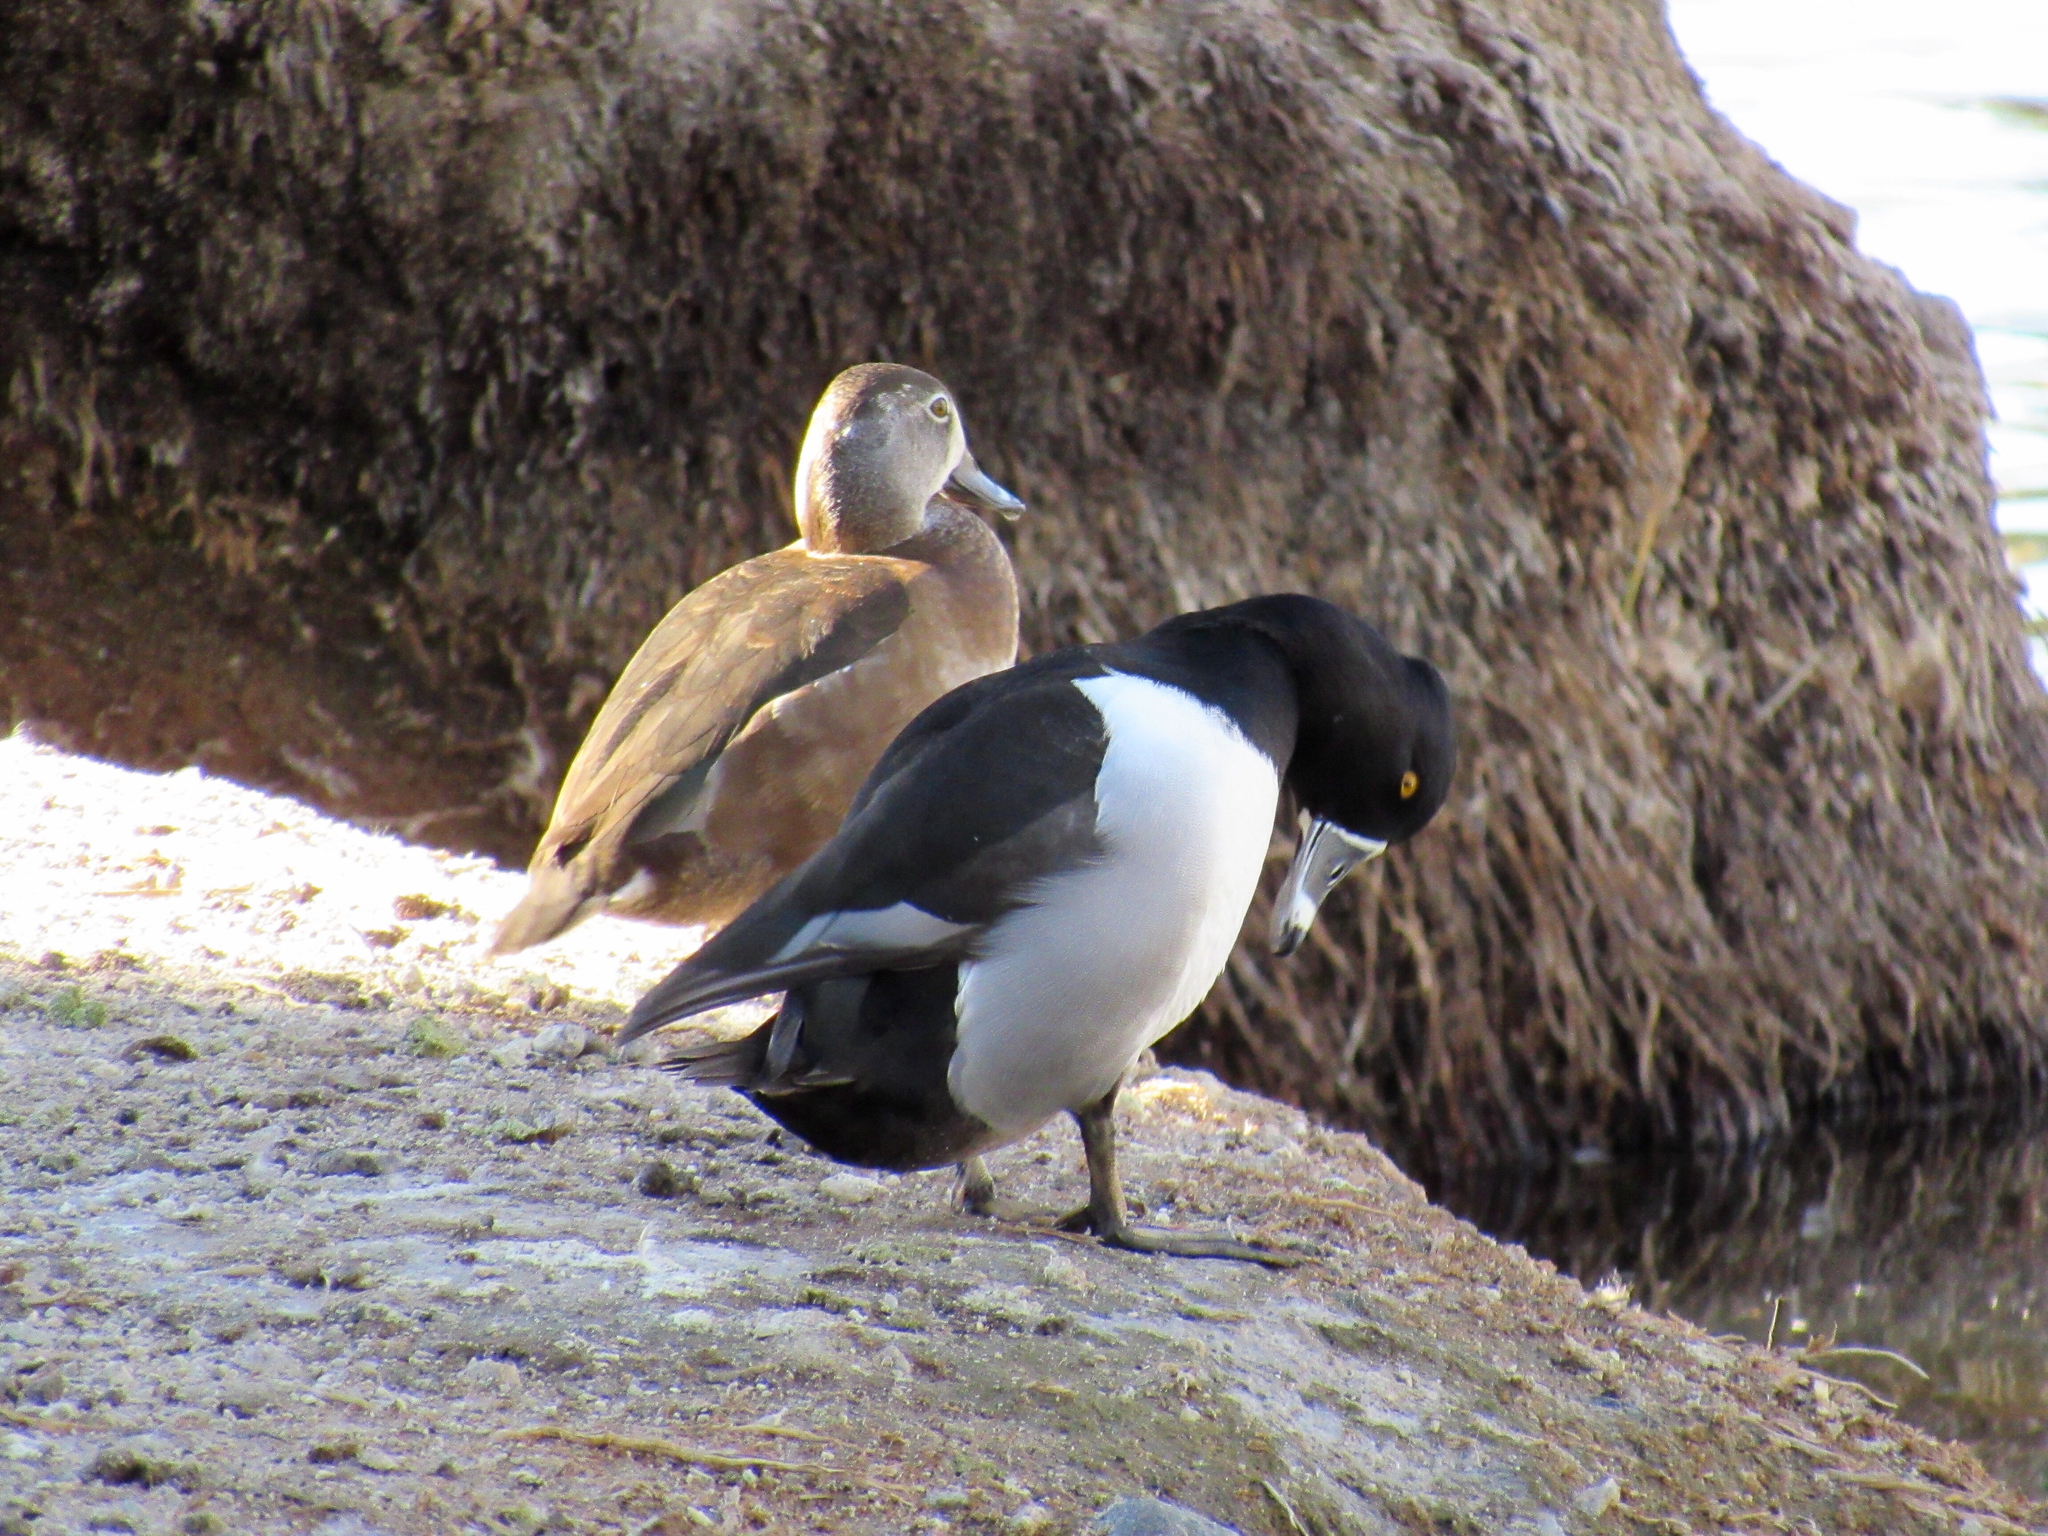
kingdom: Animalia
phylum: Chordata
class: Aves
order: Anseriformes
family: Anatidae
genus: Aythya
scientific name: Aythya collaris
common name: Ring-necked duck
